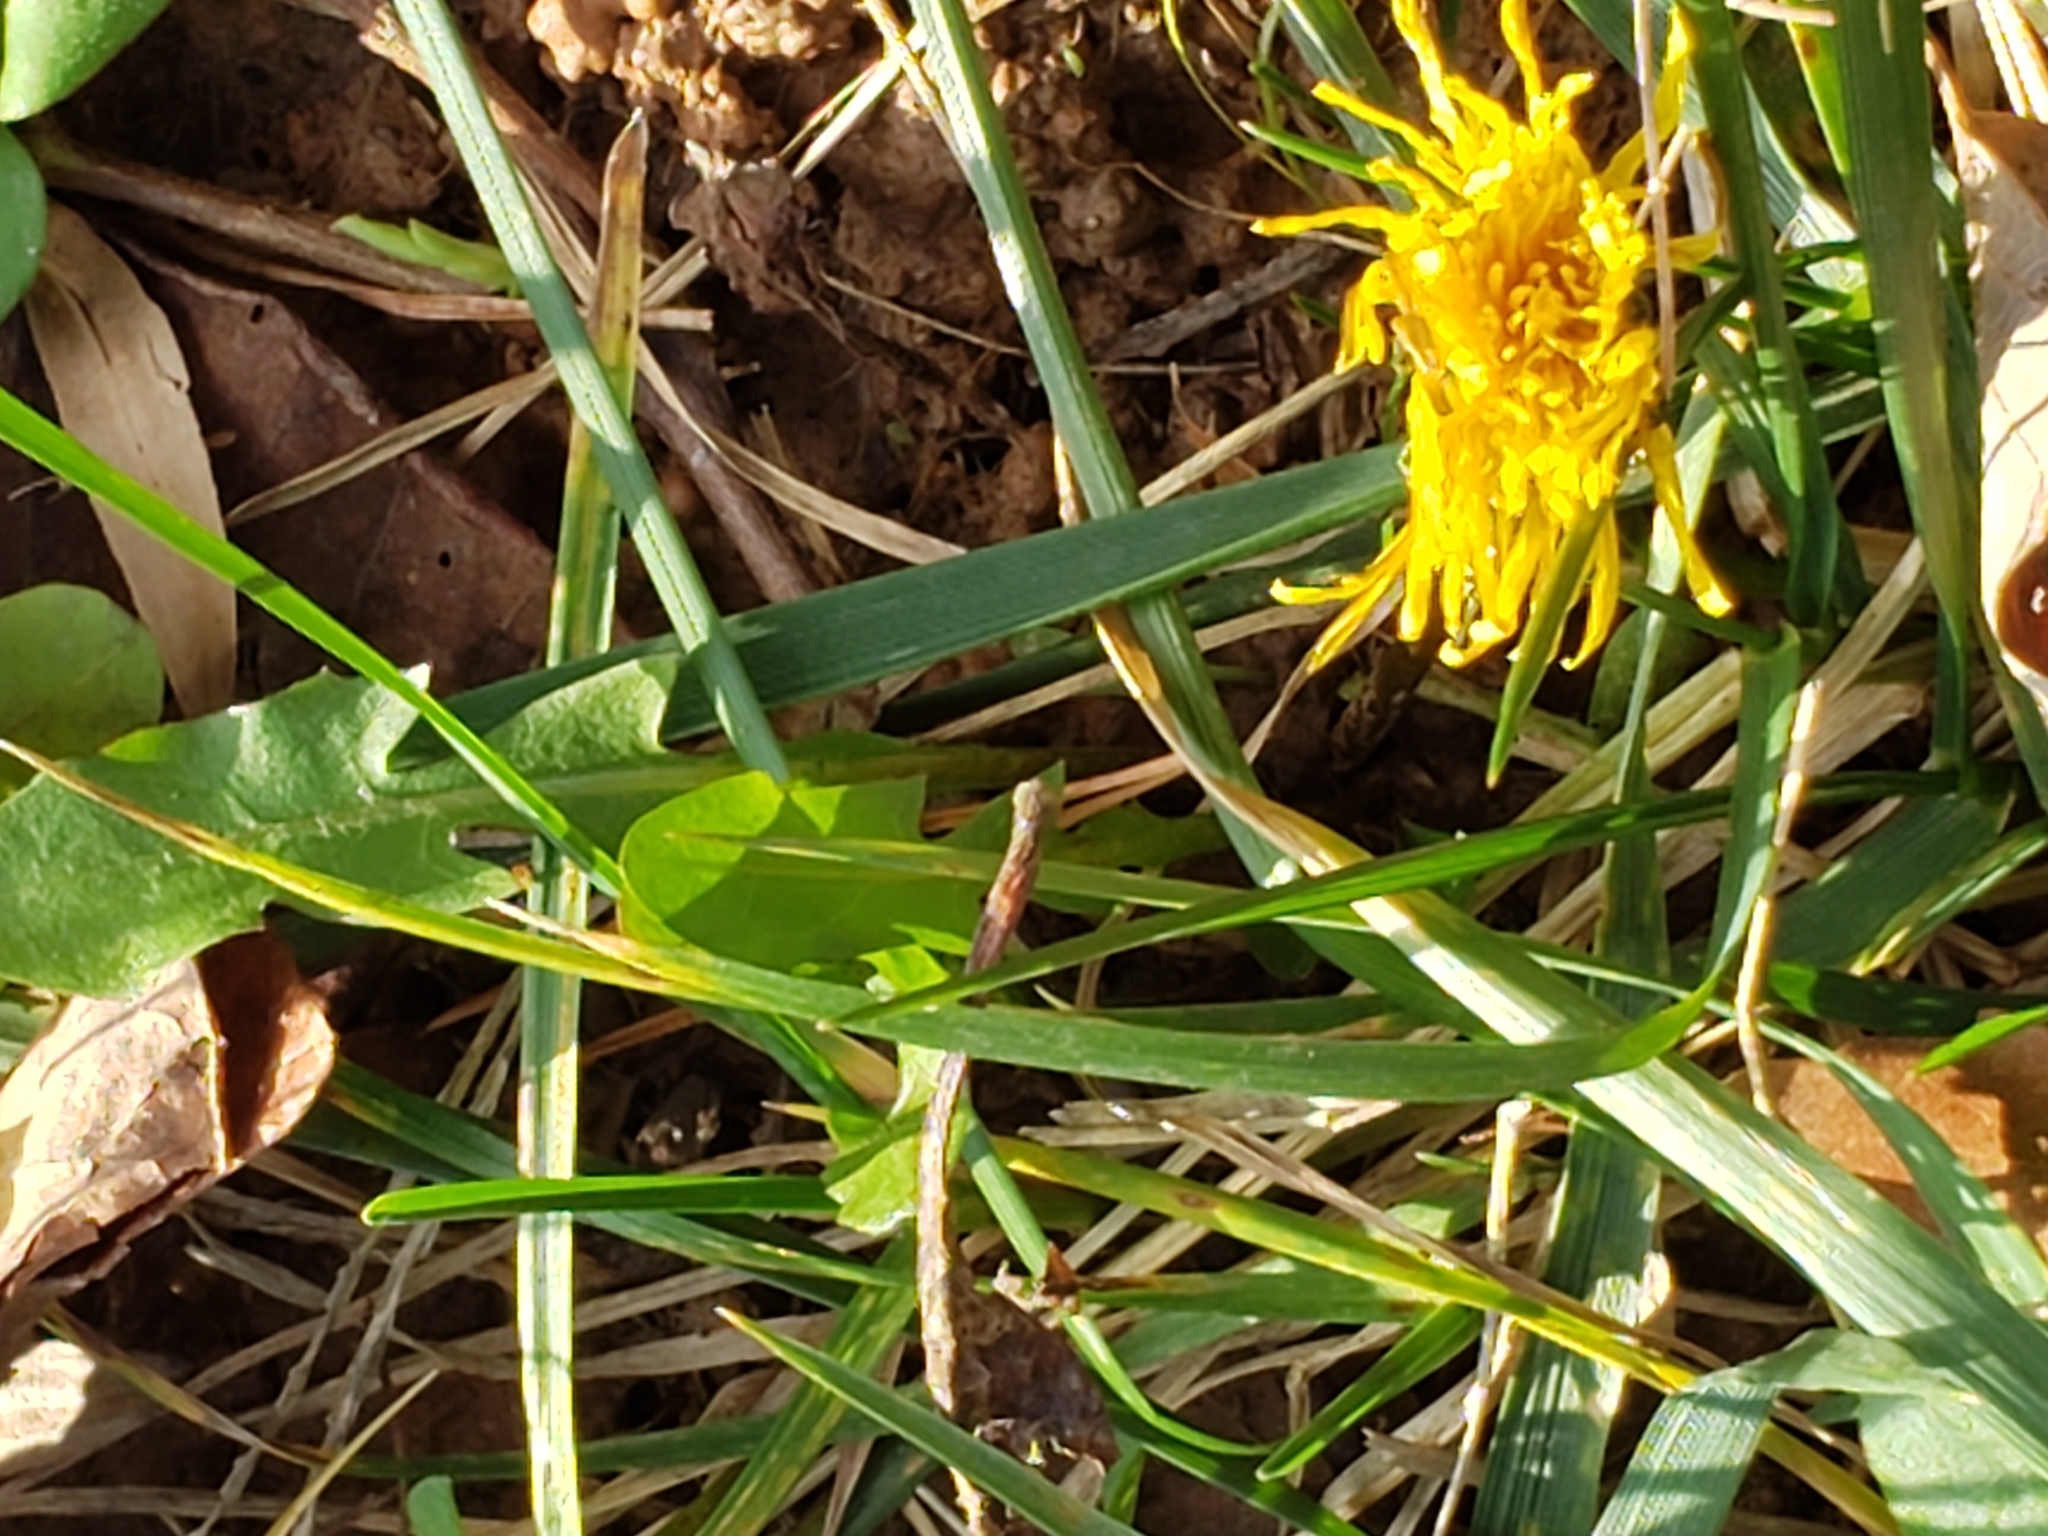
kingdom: Plantae
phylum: Tracheophyta
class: Magnoliopsida
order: Asterales
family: Asteraceae
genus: Taraxacum
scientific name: Taraxacum officinale
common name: Common dandelion
